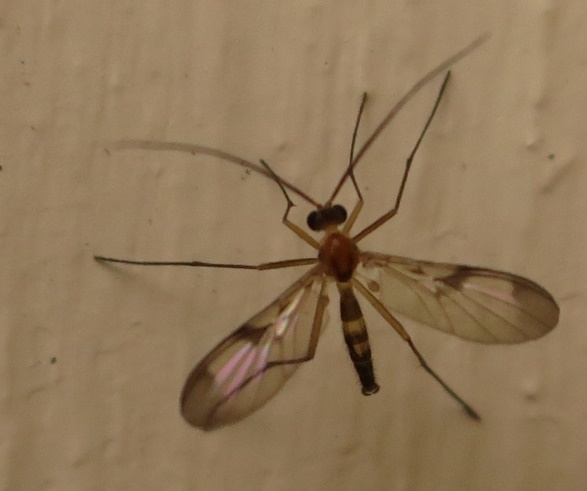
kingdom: Animalia
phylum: Arthropoda
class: Insecta
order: Diptera
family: Keroplatidae
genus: Macrocera
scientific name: Macrocera scoparia
